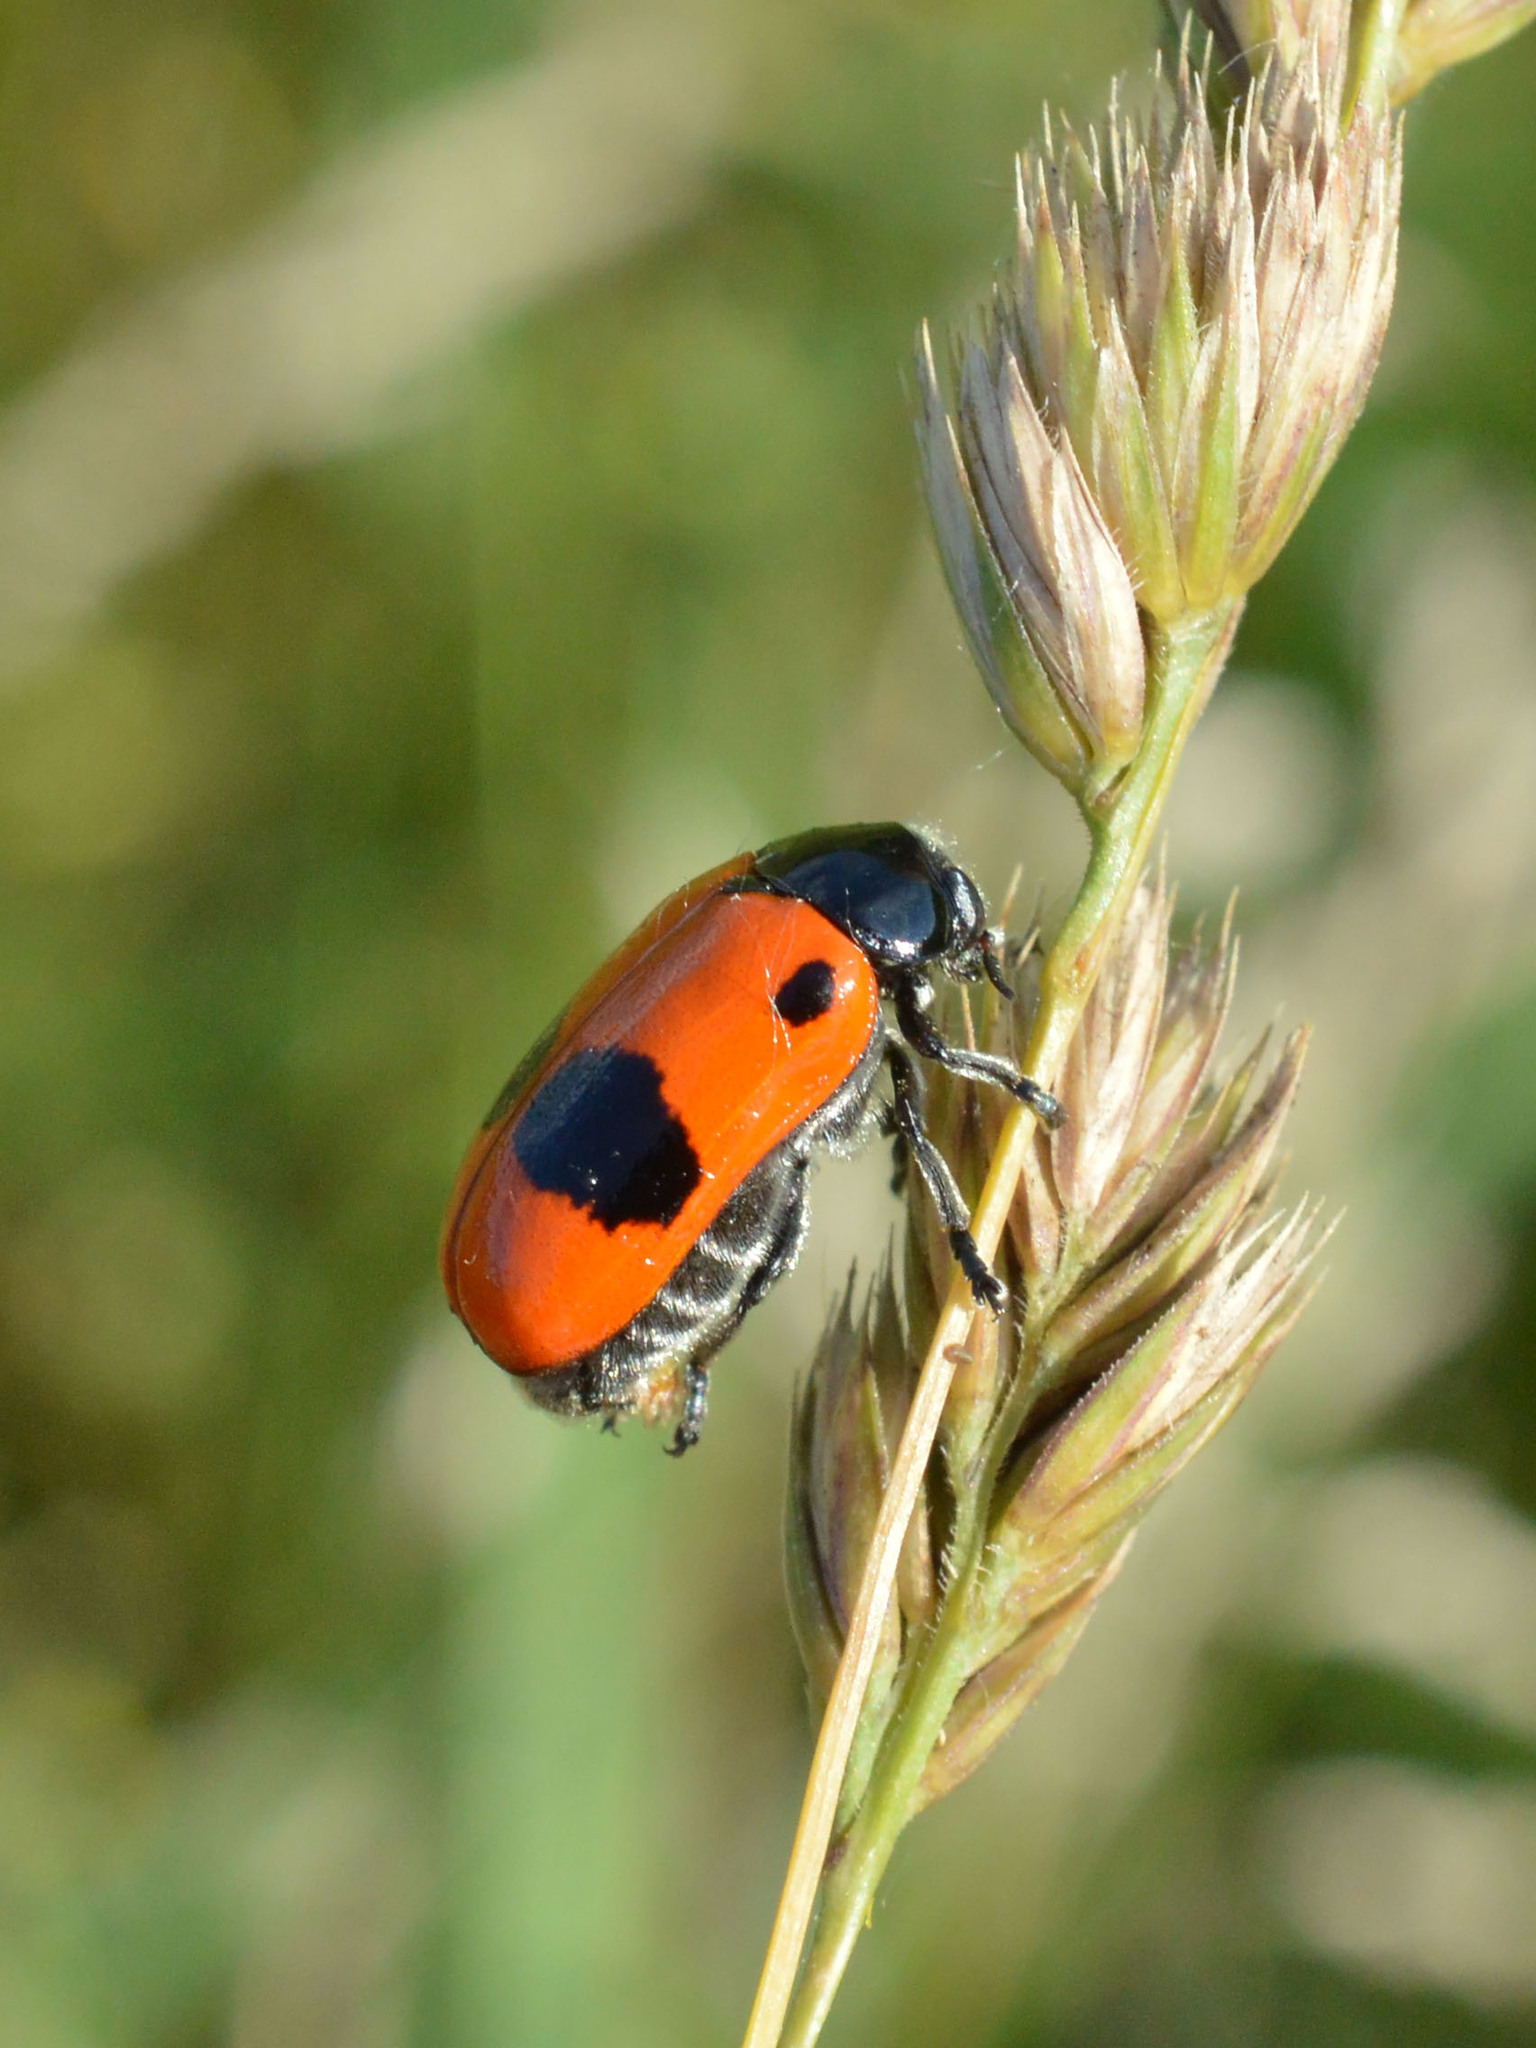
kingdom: Animalia
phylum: Arthropoda
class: Insecta
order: Coleoptera
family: Chrysomelidae
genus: Clytra
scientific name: Clytra laeviuscula
